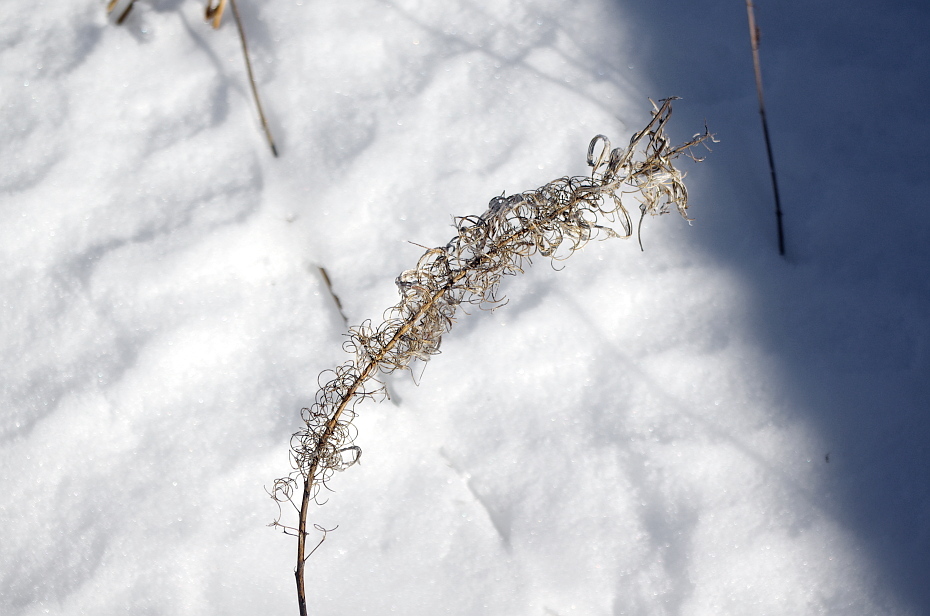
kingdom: Plantae
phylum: Tracheophyta
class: Magnoliopsida
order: Myrtales
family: Onagraceae
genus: Chamaenerion
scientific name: Chamaenerion angustifolium
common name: Fireweed
